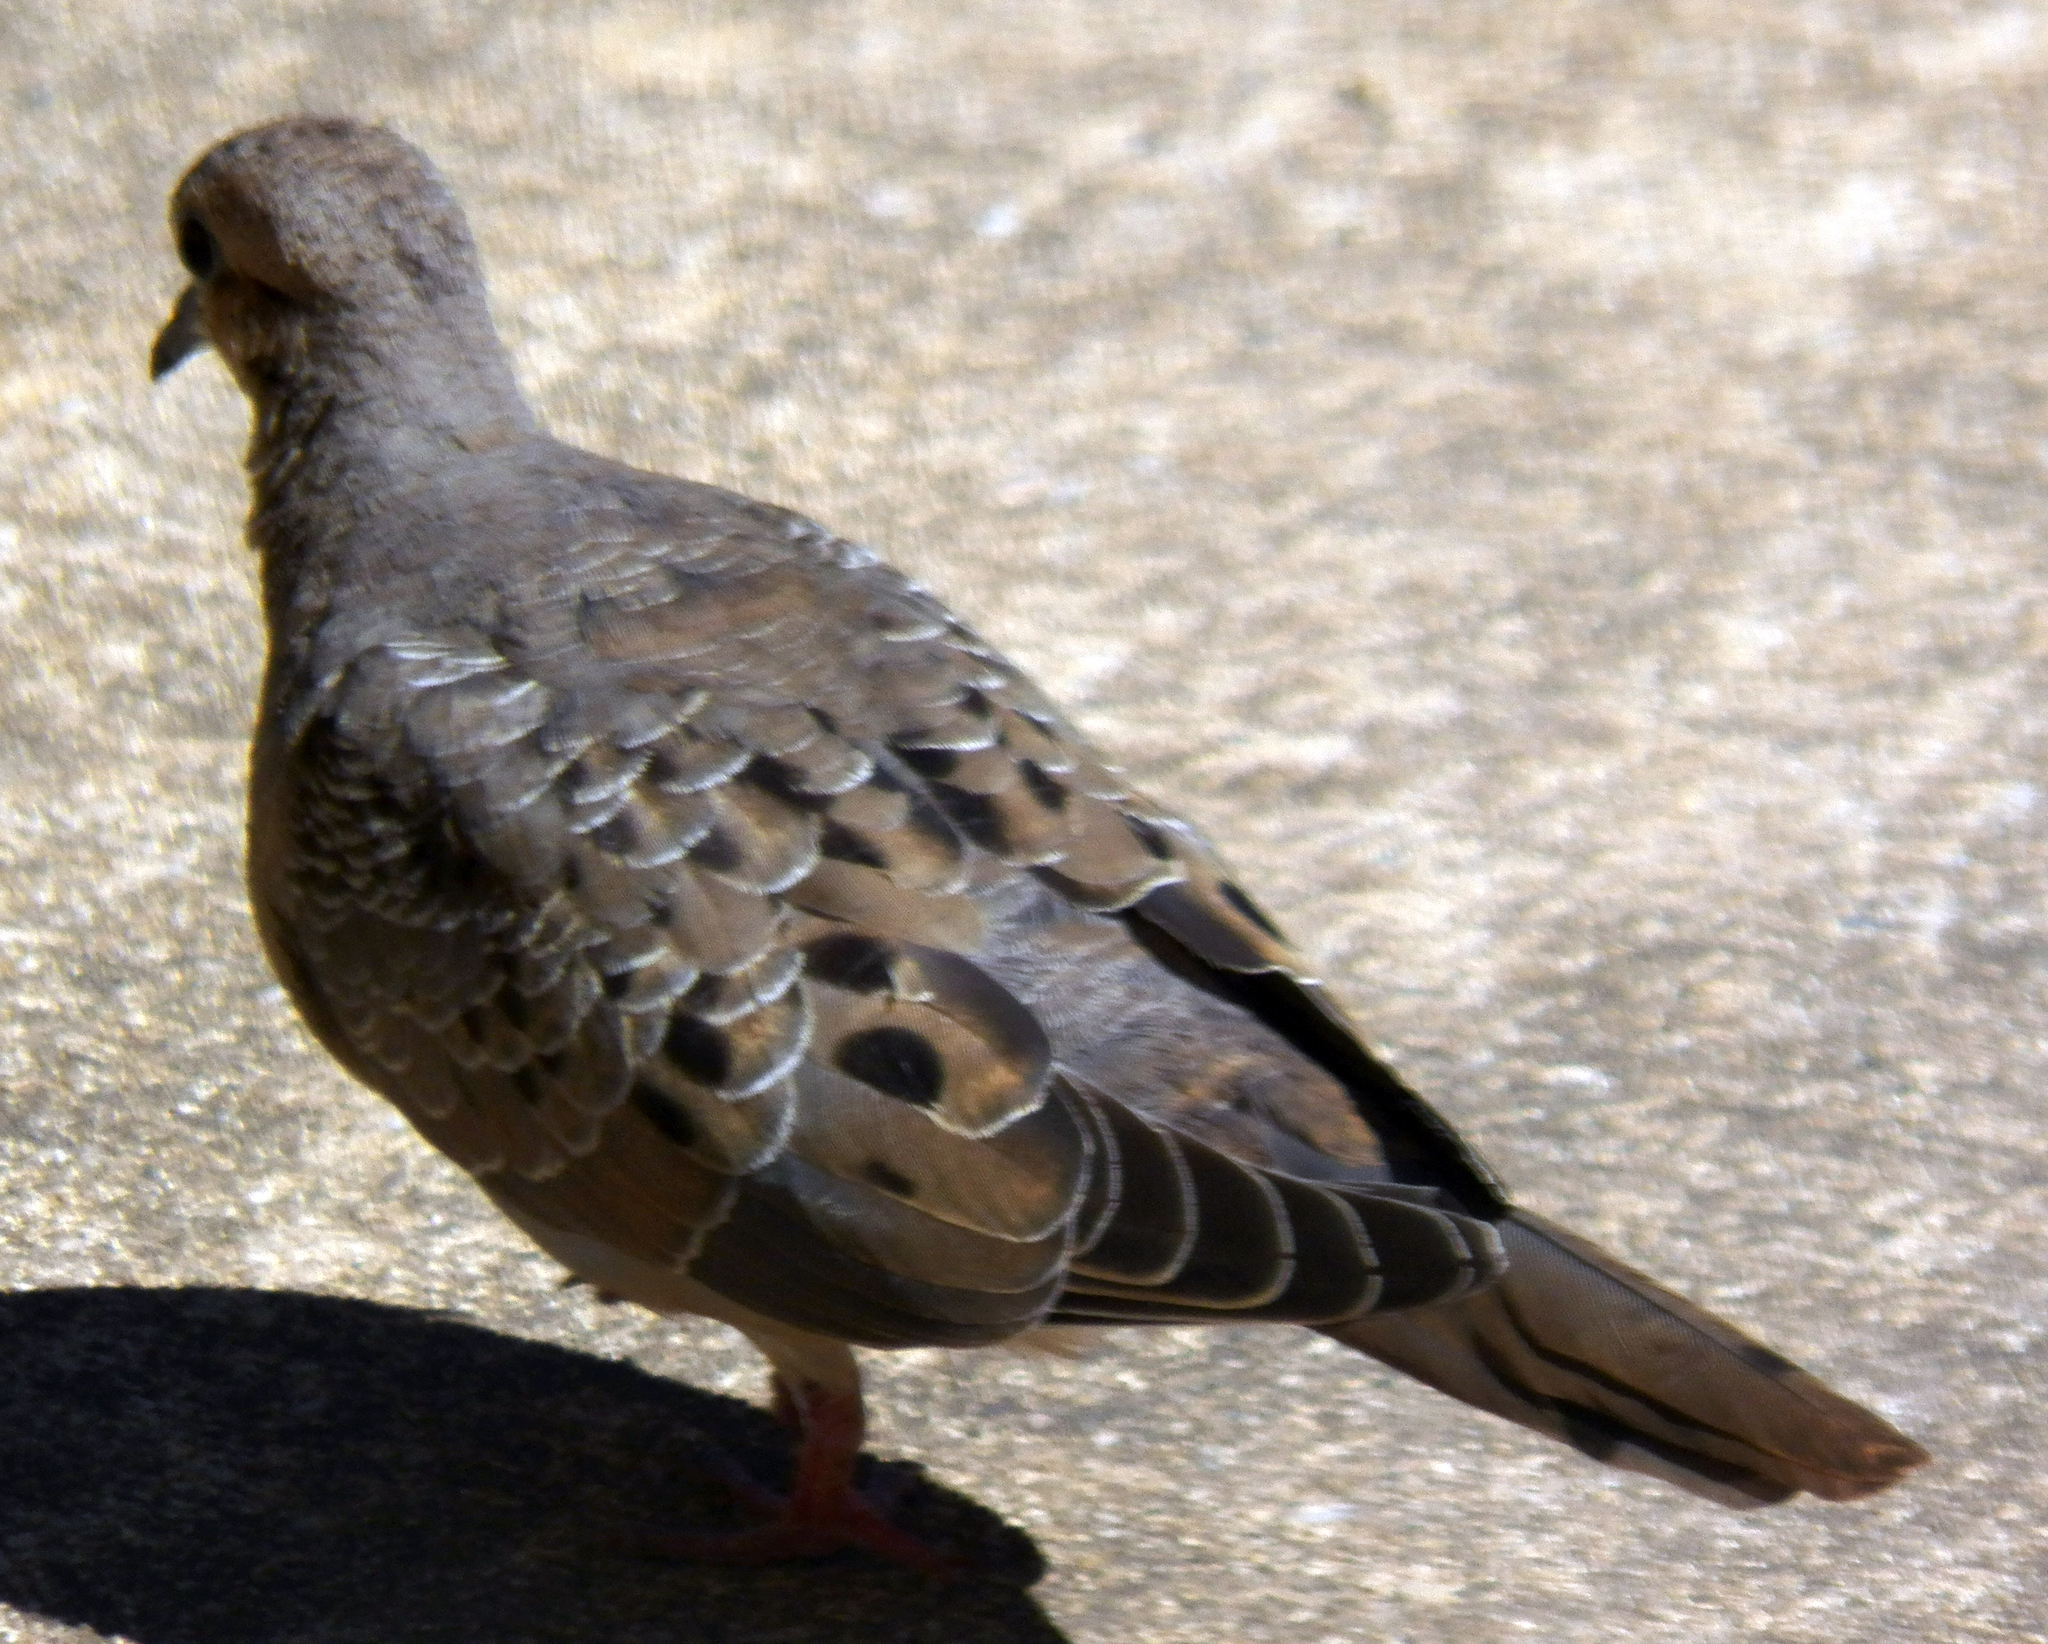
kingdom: Animalia
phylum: Chordata
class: Aves
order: Columbiformes
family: Columbidae
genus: Zenaida
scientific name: Zenaida macroura
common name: Mourning dove
